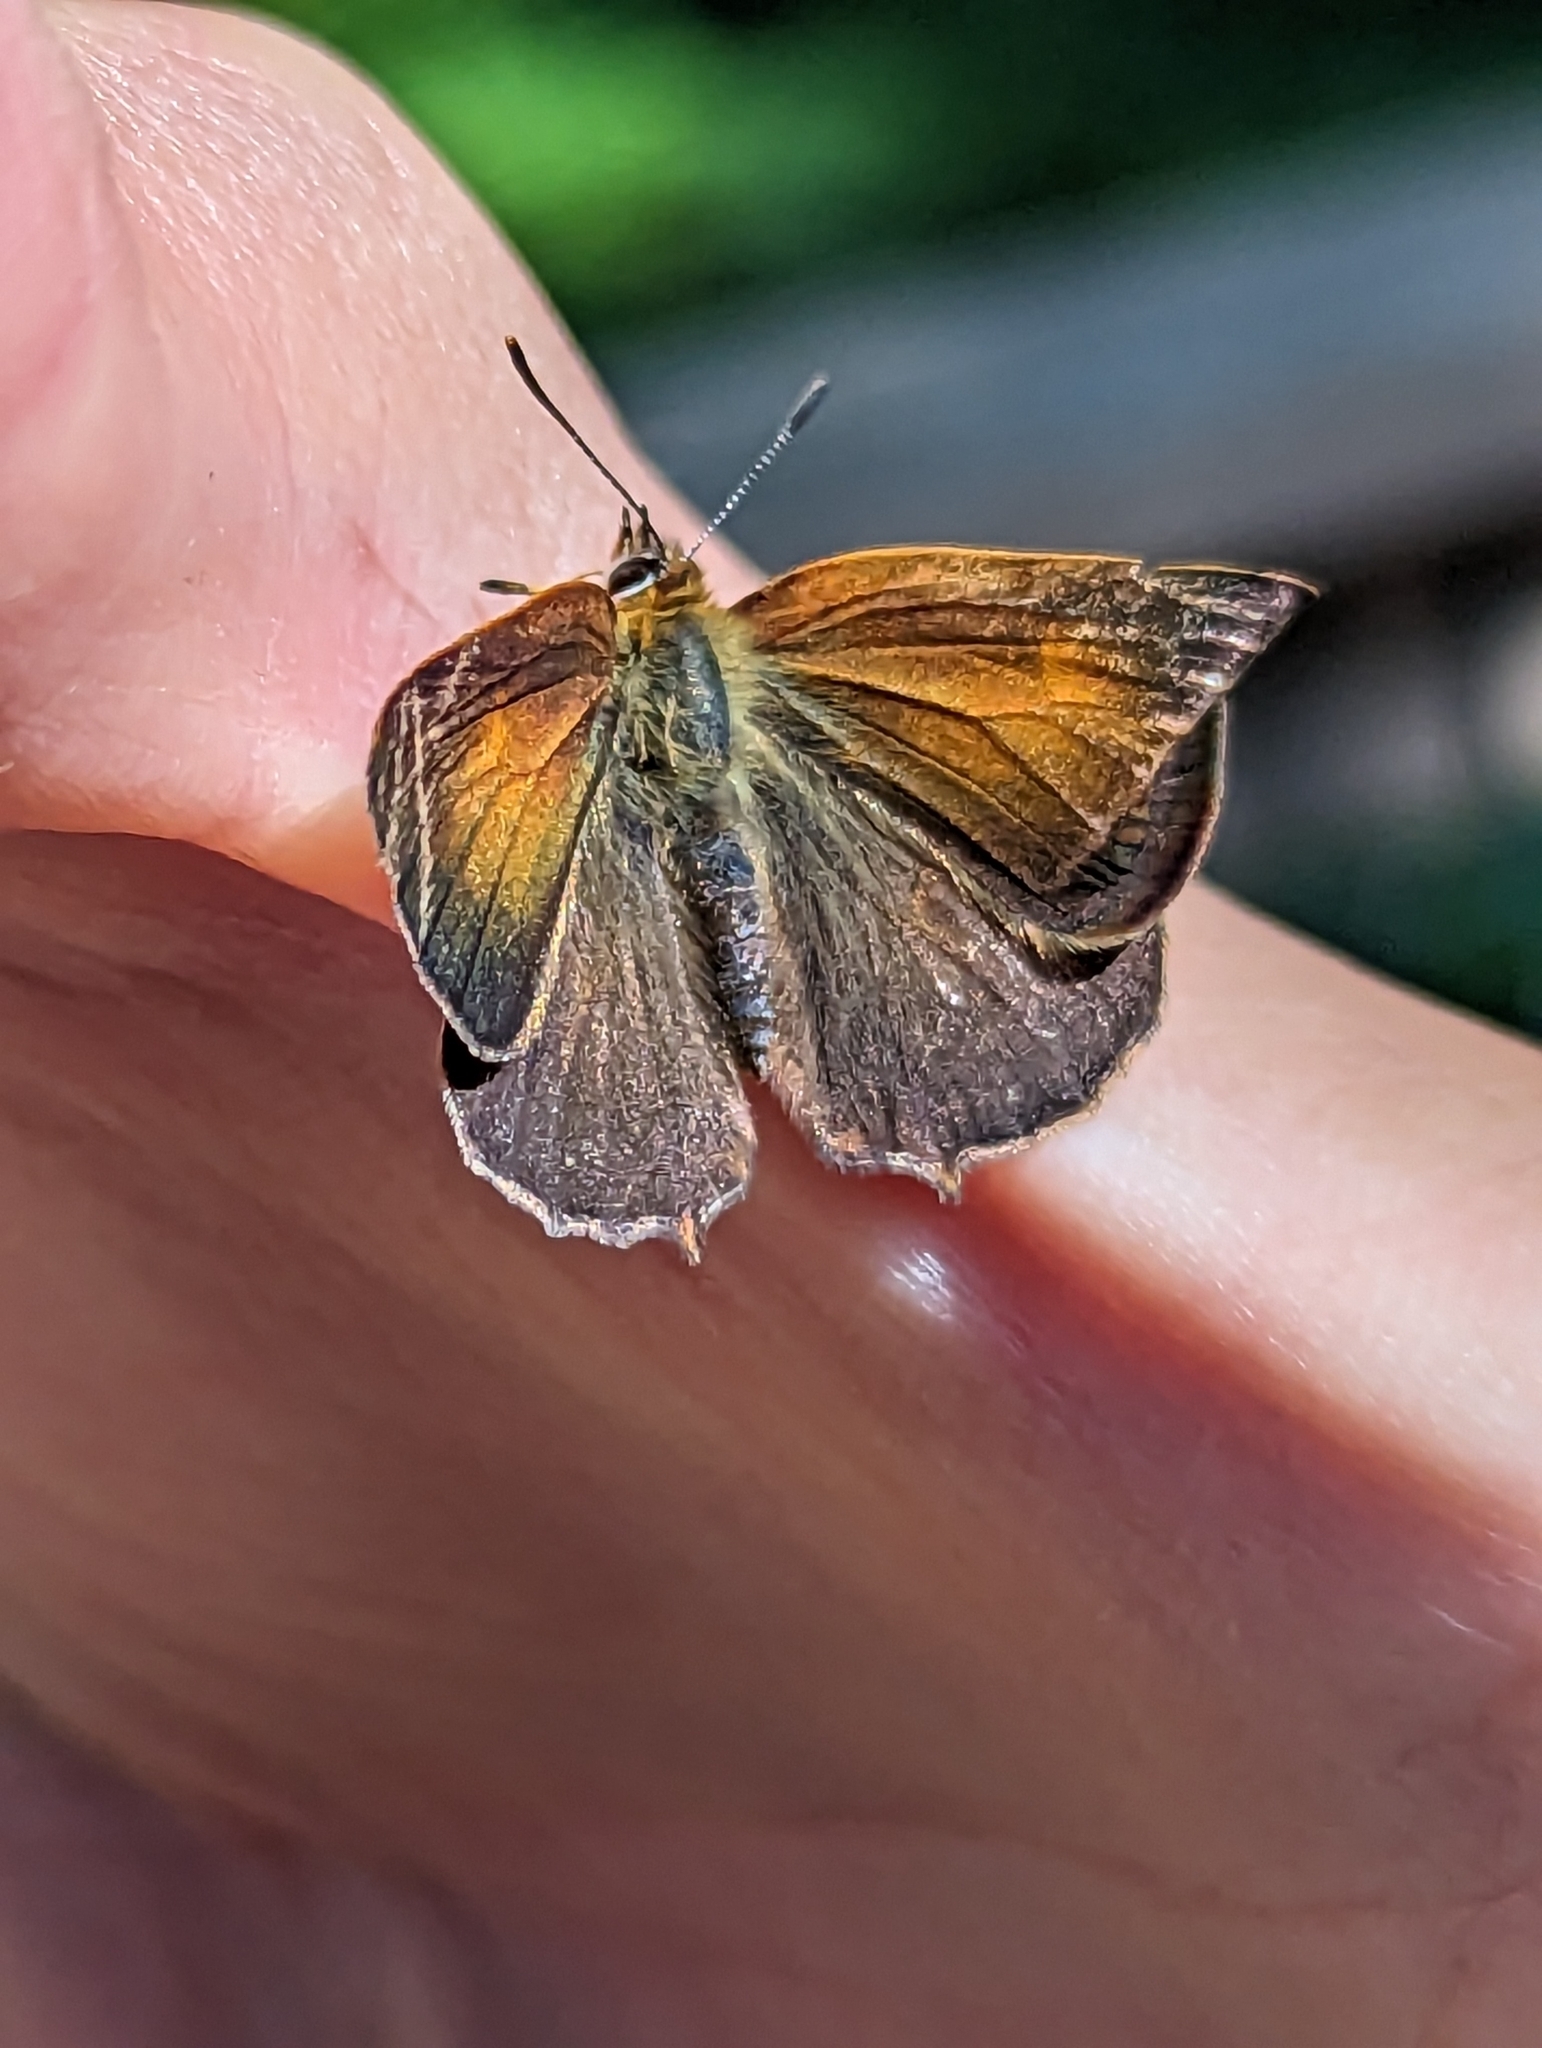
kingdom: Animalia
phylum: Arthropoda
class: Insecta
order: Lepidoptera
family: Lycaenidae
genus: Habrodais
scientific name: Habrodais grunus
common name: Golden hairstreak
